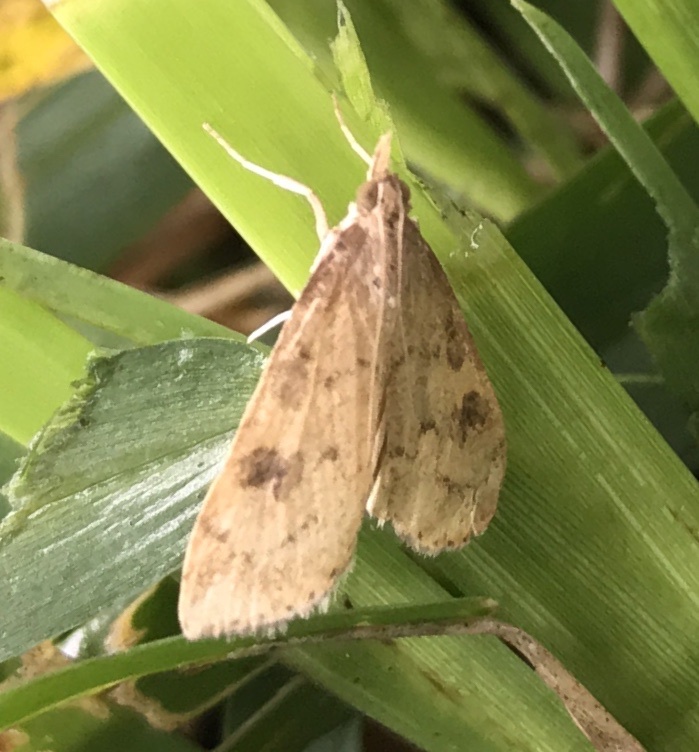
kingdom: Animalia
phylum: Arthropoda
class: Insecta
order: Lepidoptera
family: Crambidae
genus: Udea
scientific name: Udea rubigalis
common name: Celery leaftier moth
